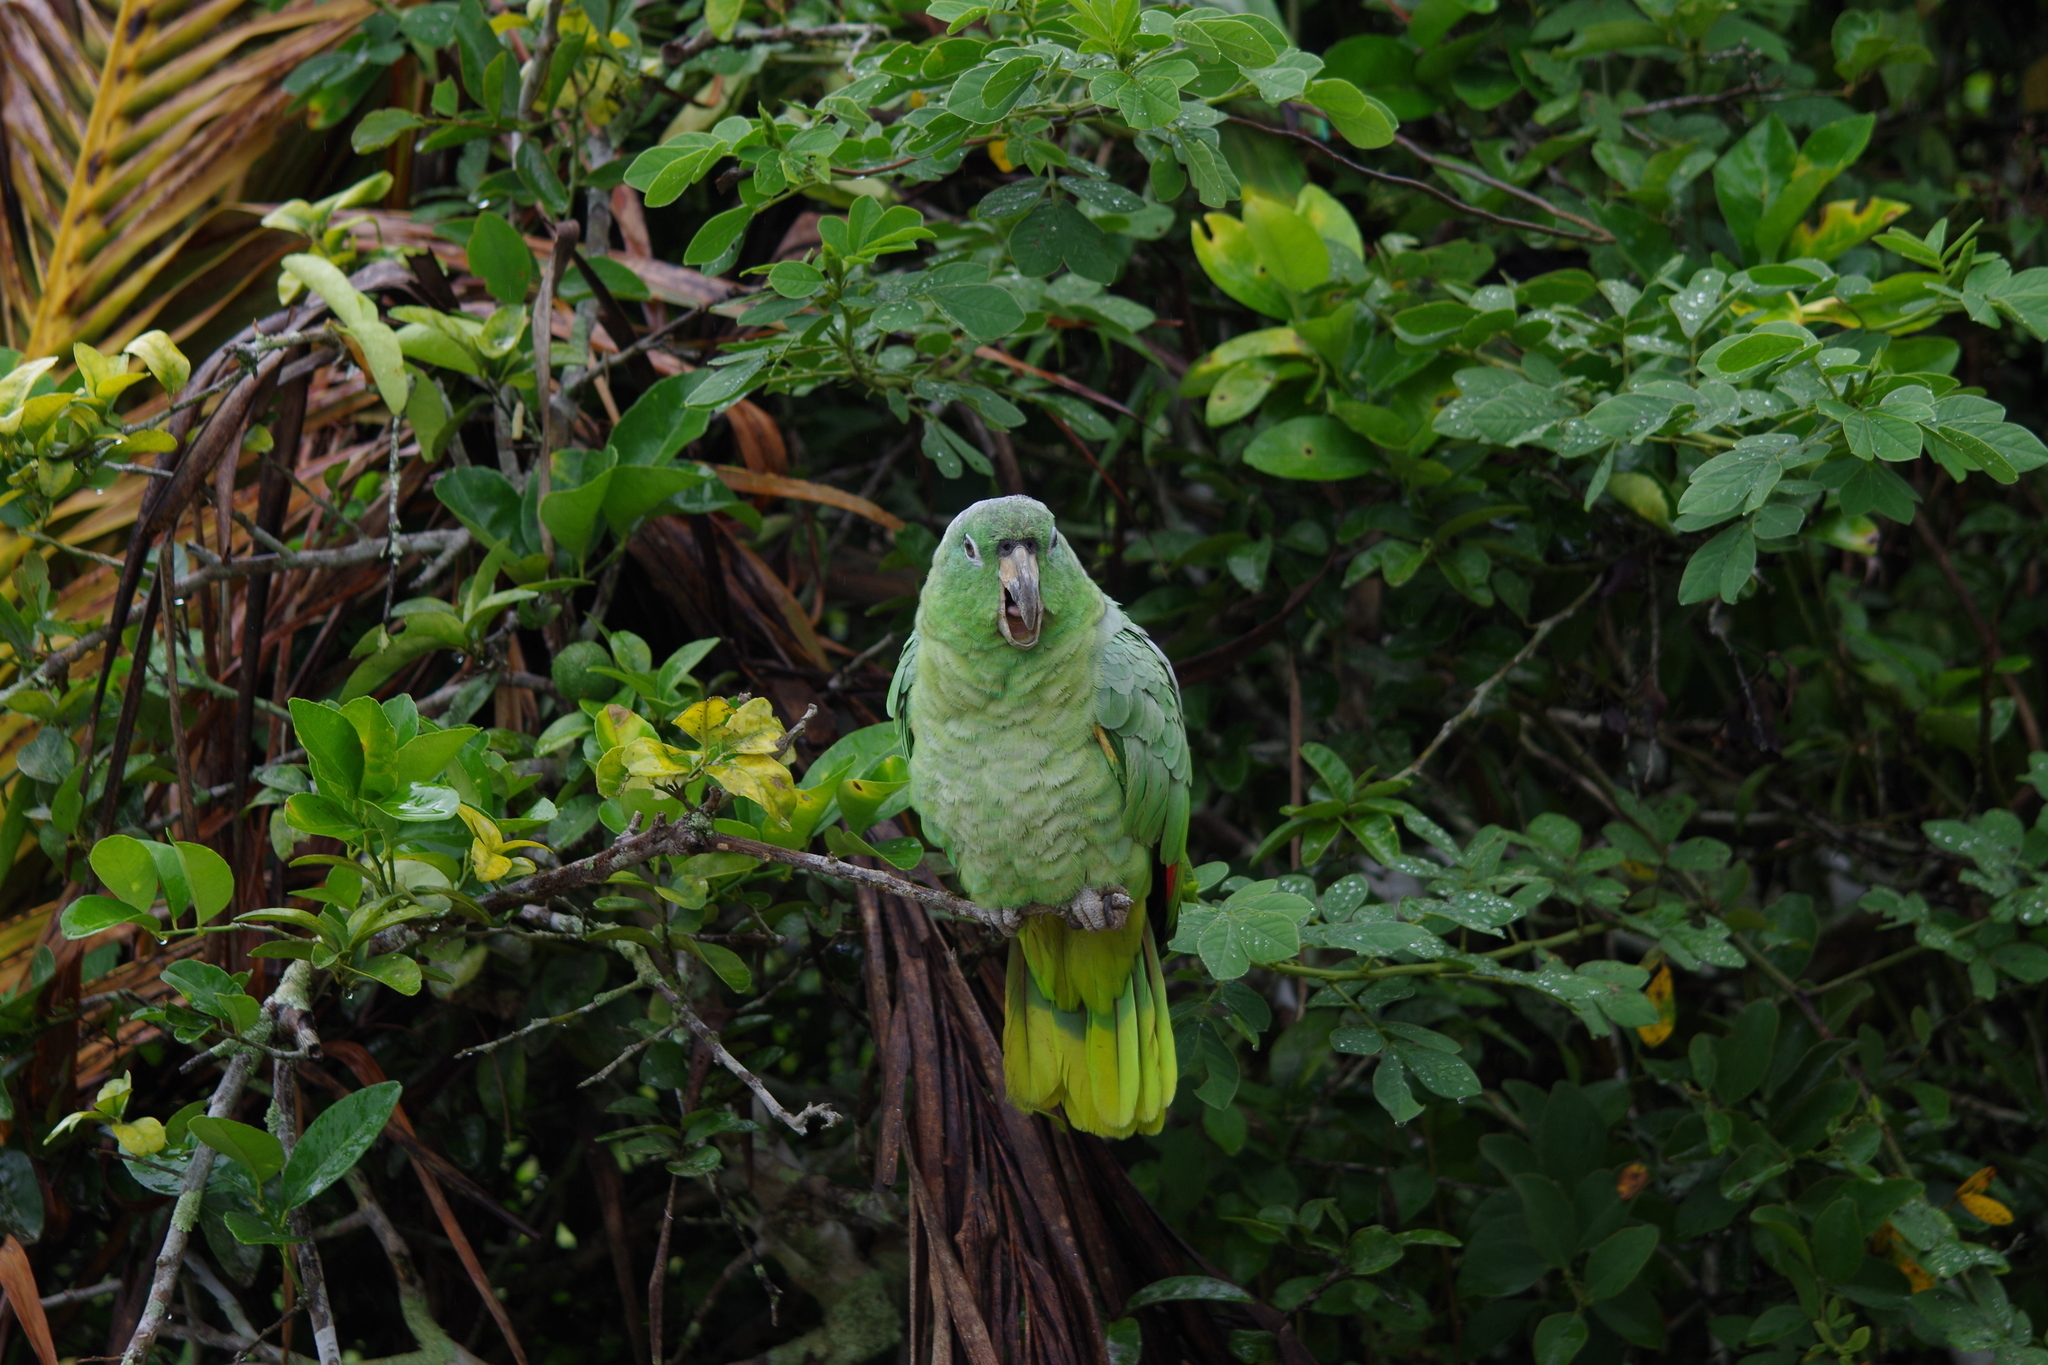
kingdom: Animalia
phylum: Chordata
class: Aves
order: Psittaciformes
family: Psittacidae
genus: Amazona
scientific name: Amazona farinosa
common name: Mealy parrot
